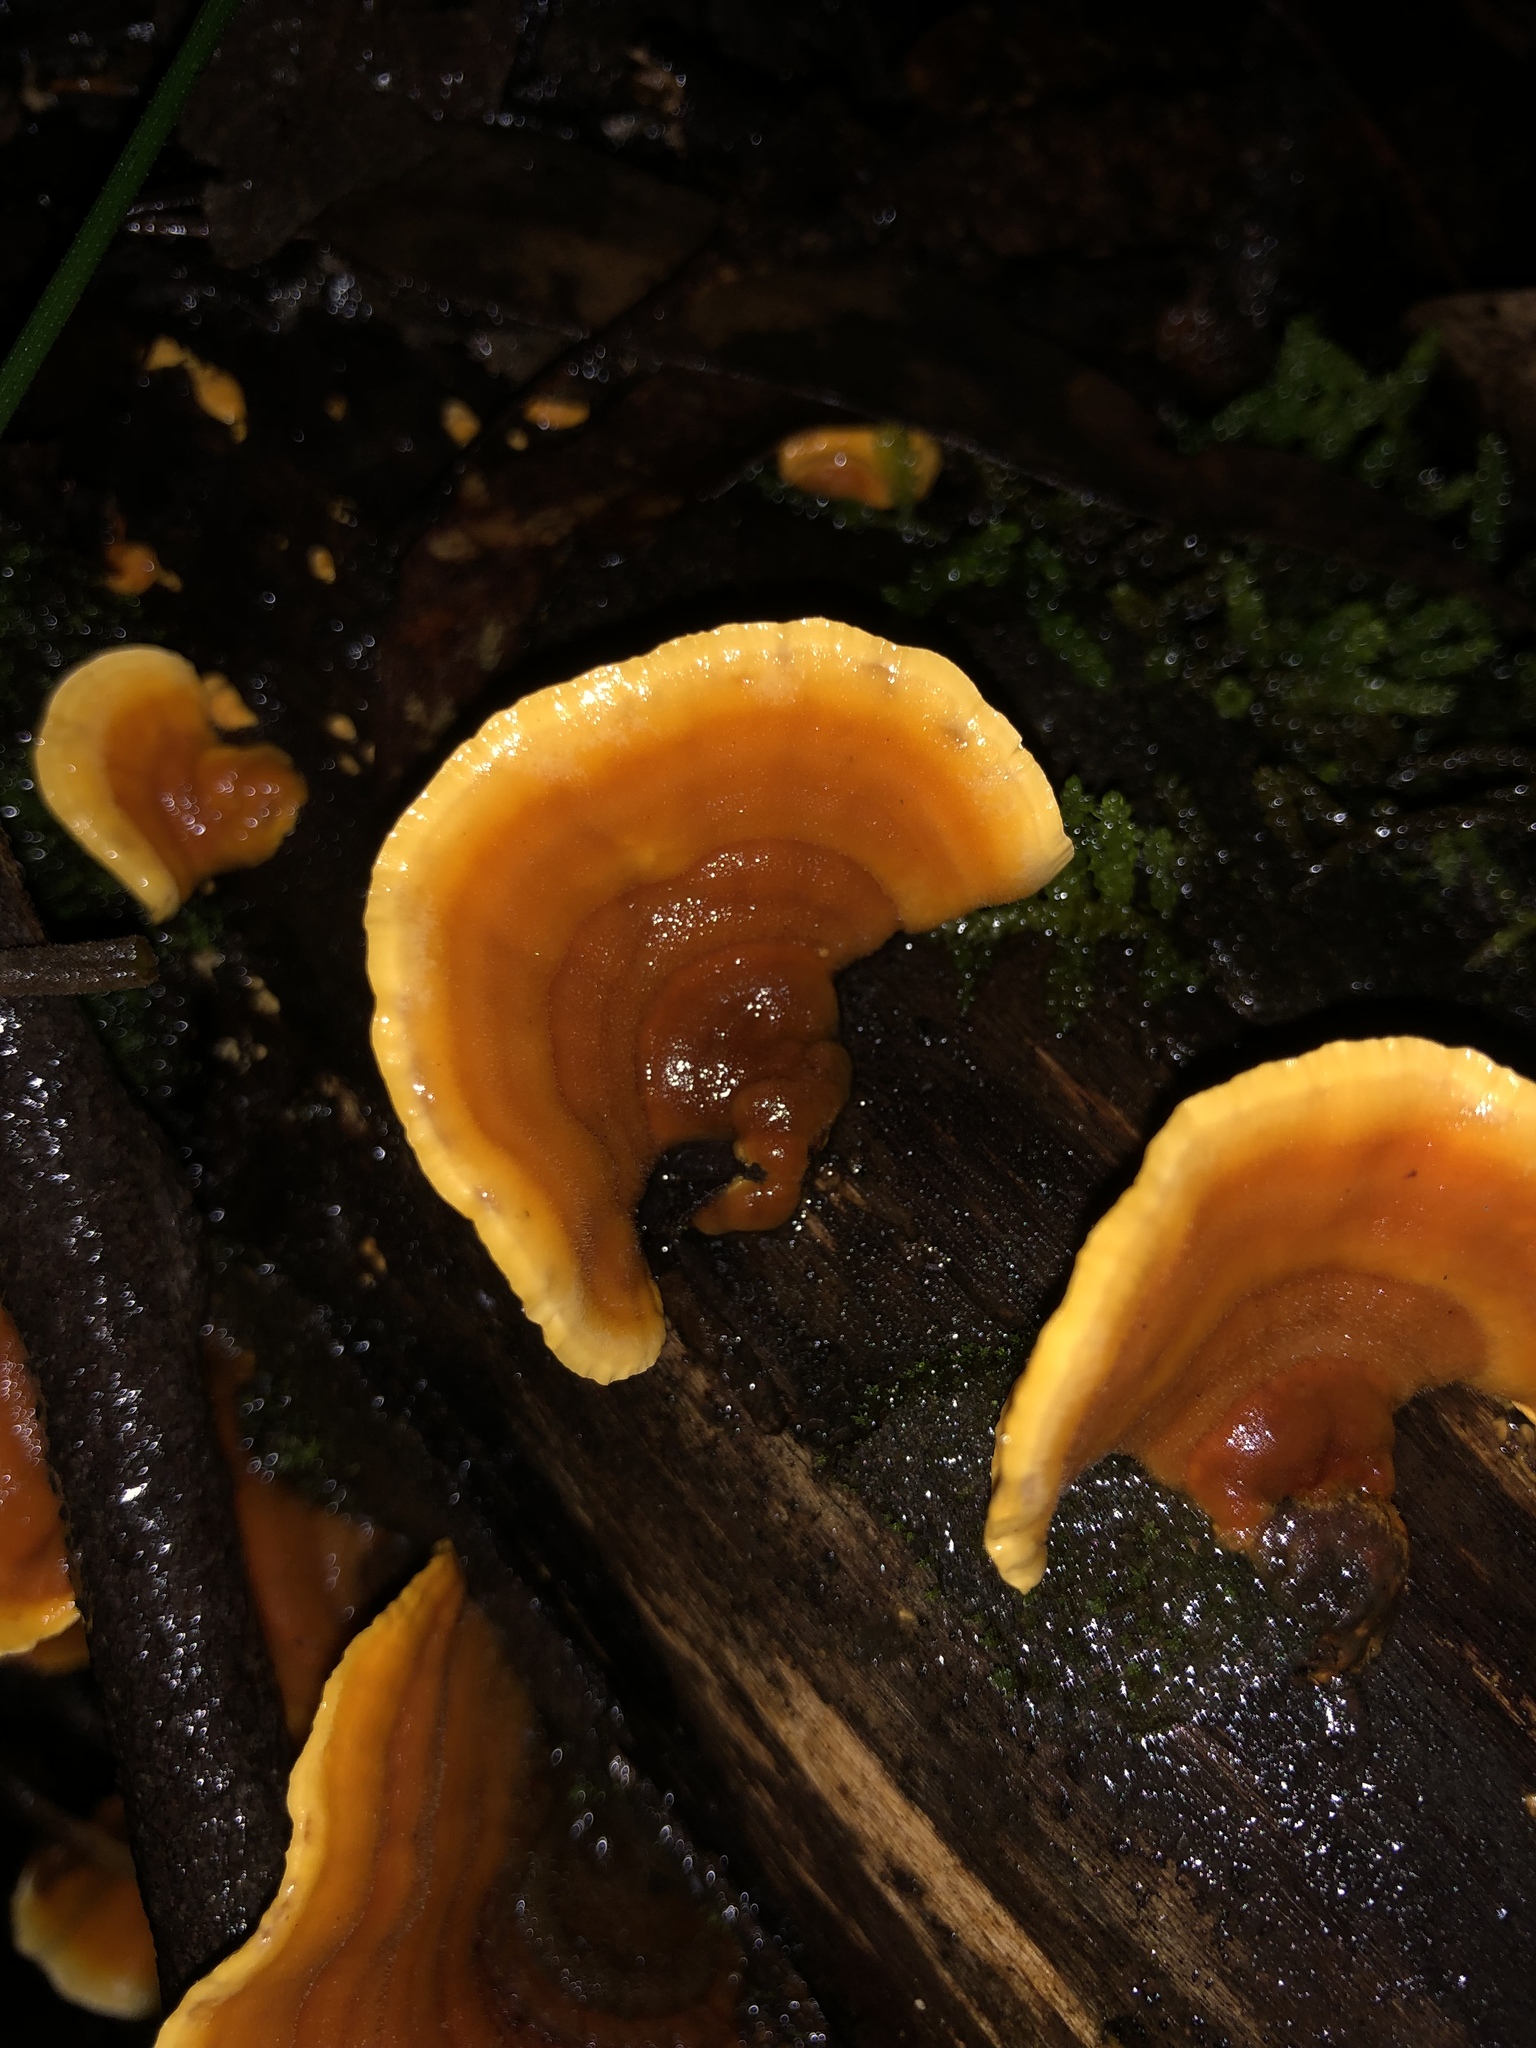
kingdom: Fungi
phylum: Basidiomycota
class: Agaricomycetes
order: Russulales
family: Stereaceae
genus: Stereum
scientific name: Stereum versicolor
